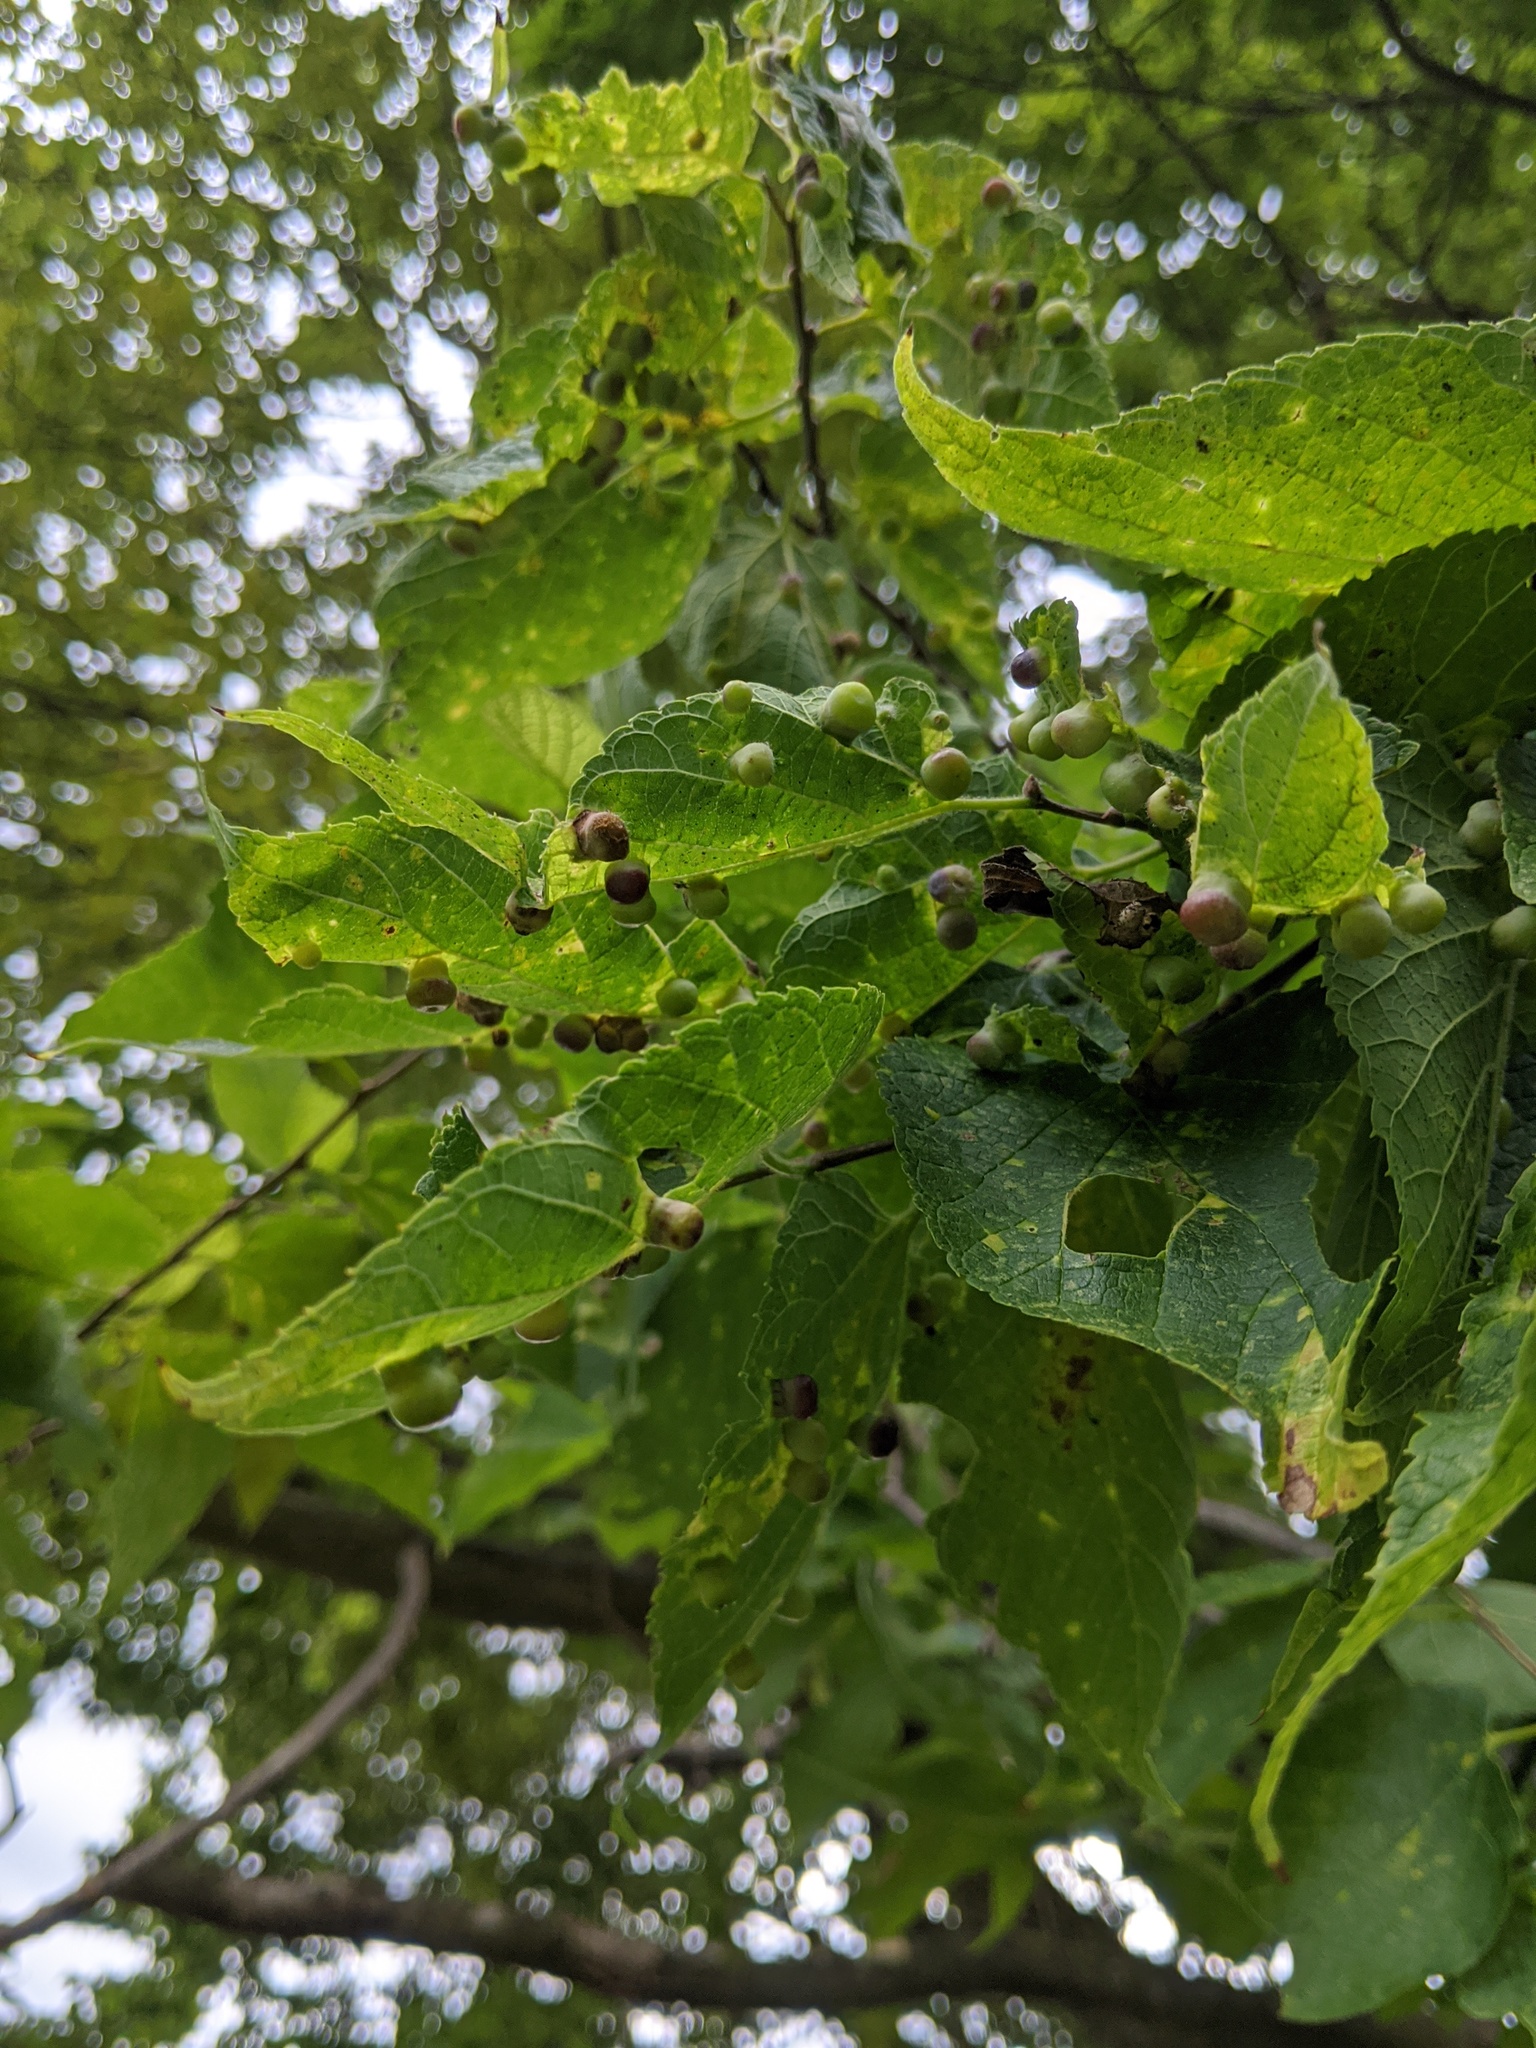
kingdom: Animalia
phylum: Arthropoda
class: Insecta
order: Hemiptera
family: Aphalaridae
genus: Pachypsylla
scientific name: Pachypsylla celtidismamma
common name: Hackberry nipplegall psyllid
